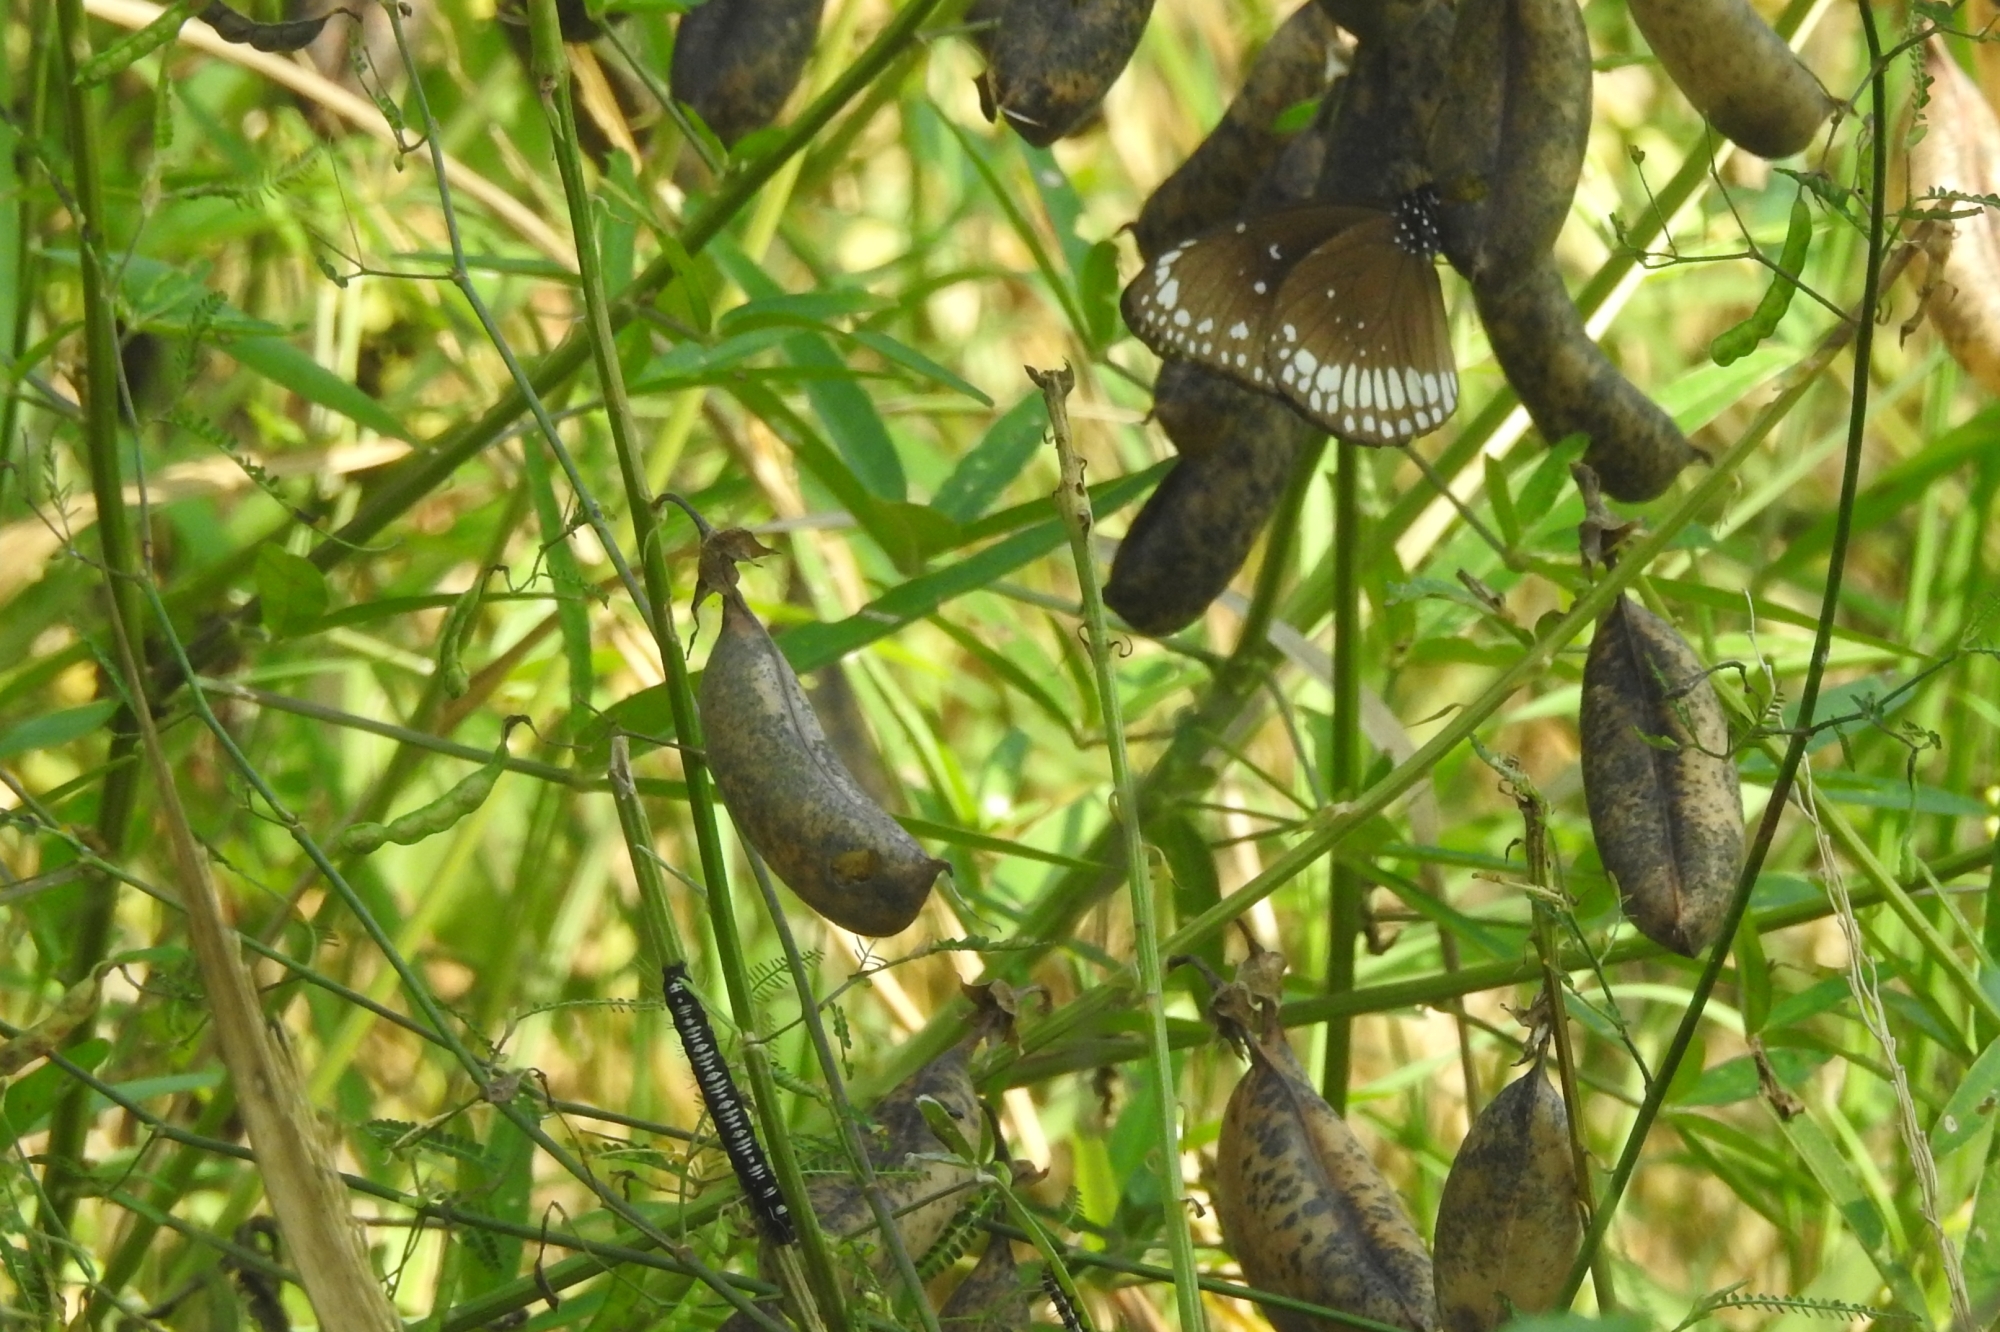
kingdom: Animalia
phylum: Arthropoda
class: Insecta
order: Lepidoptera
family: Nymphalidae
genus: Euploea
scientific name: Euploea core
